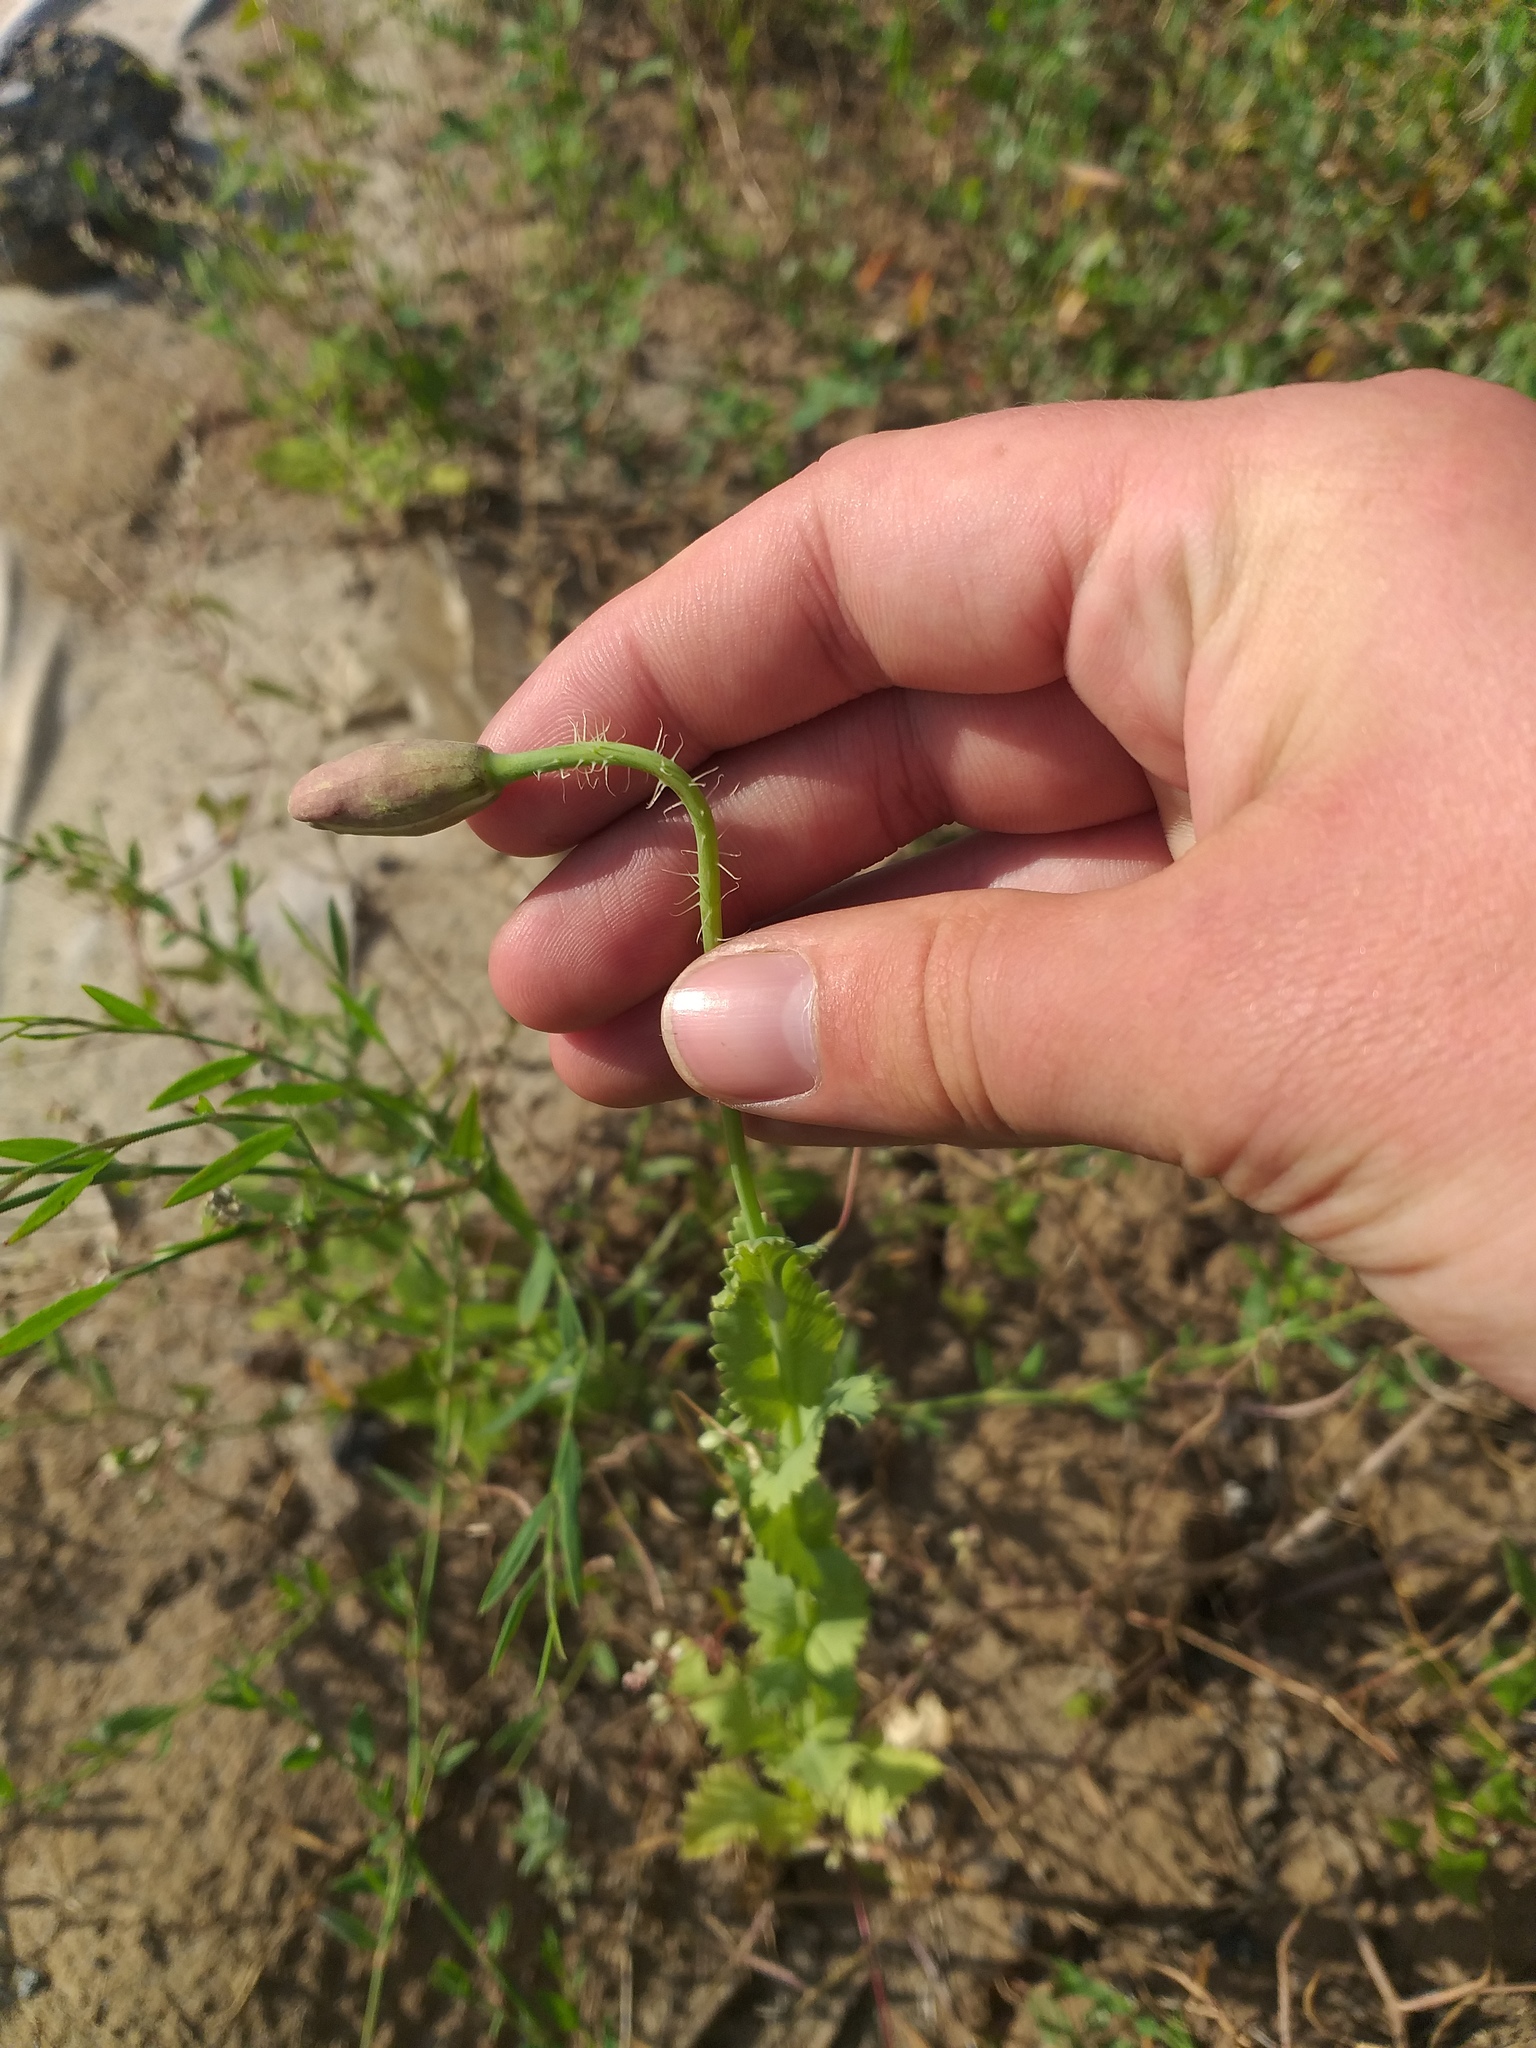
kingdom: Plantae
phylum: Tracheophyta
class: Magnoliopsida
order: Ranunculales
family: Papaveraceae
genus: Papaver
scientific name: Papaver somniferum
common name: Opium poppy
